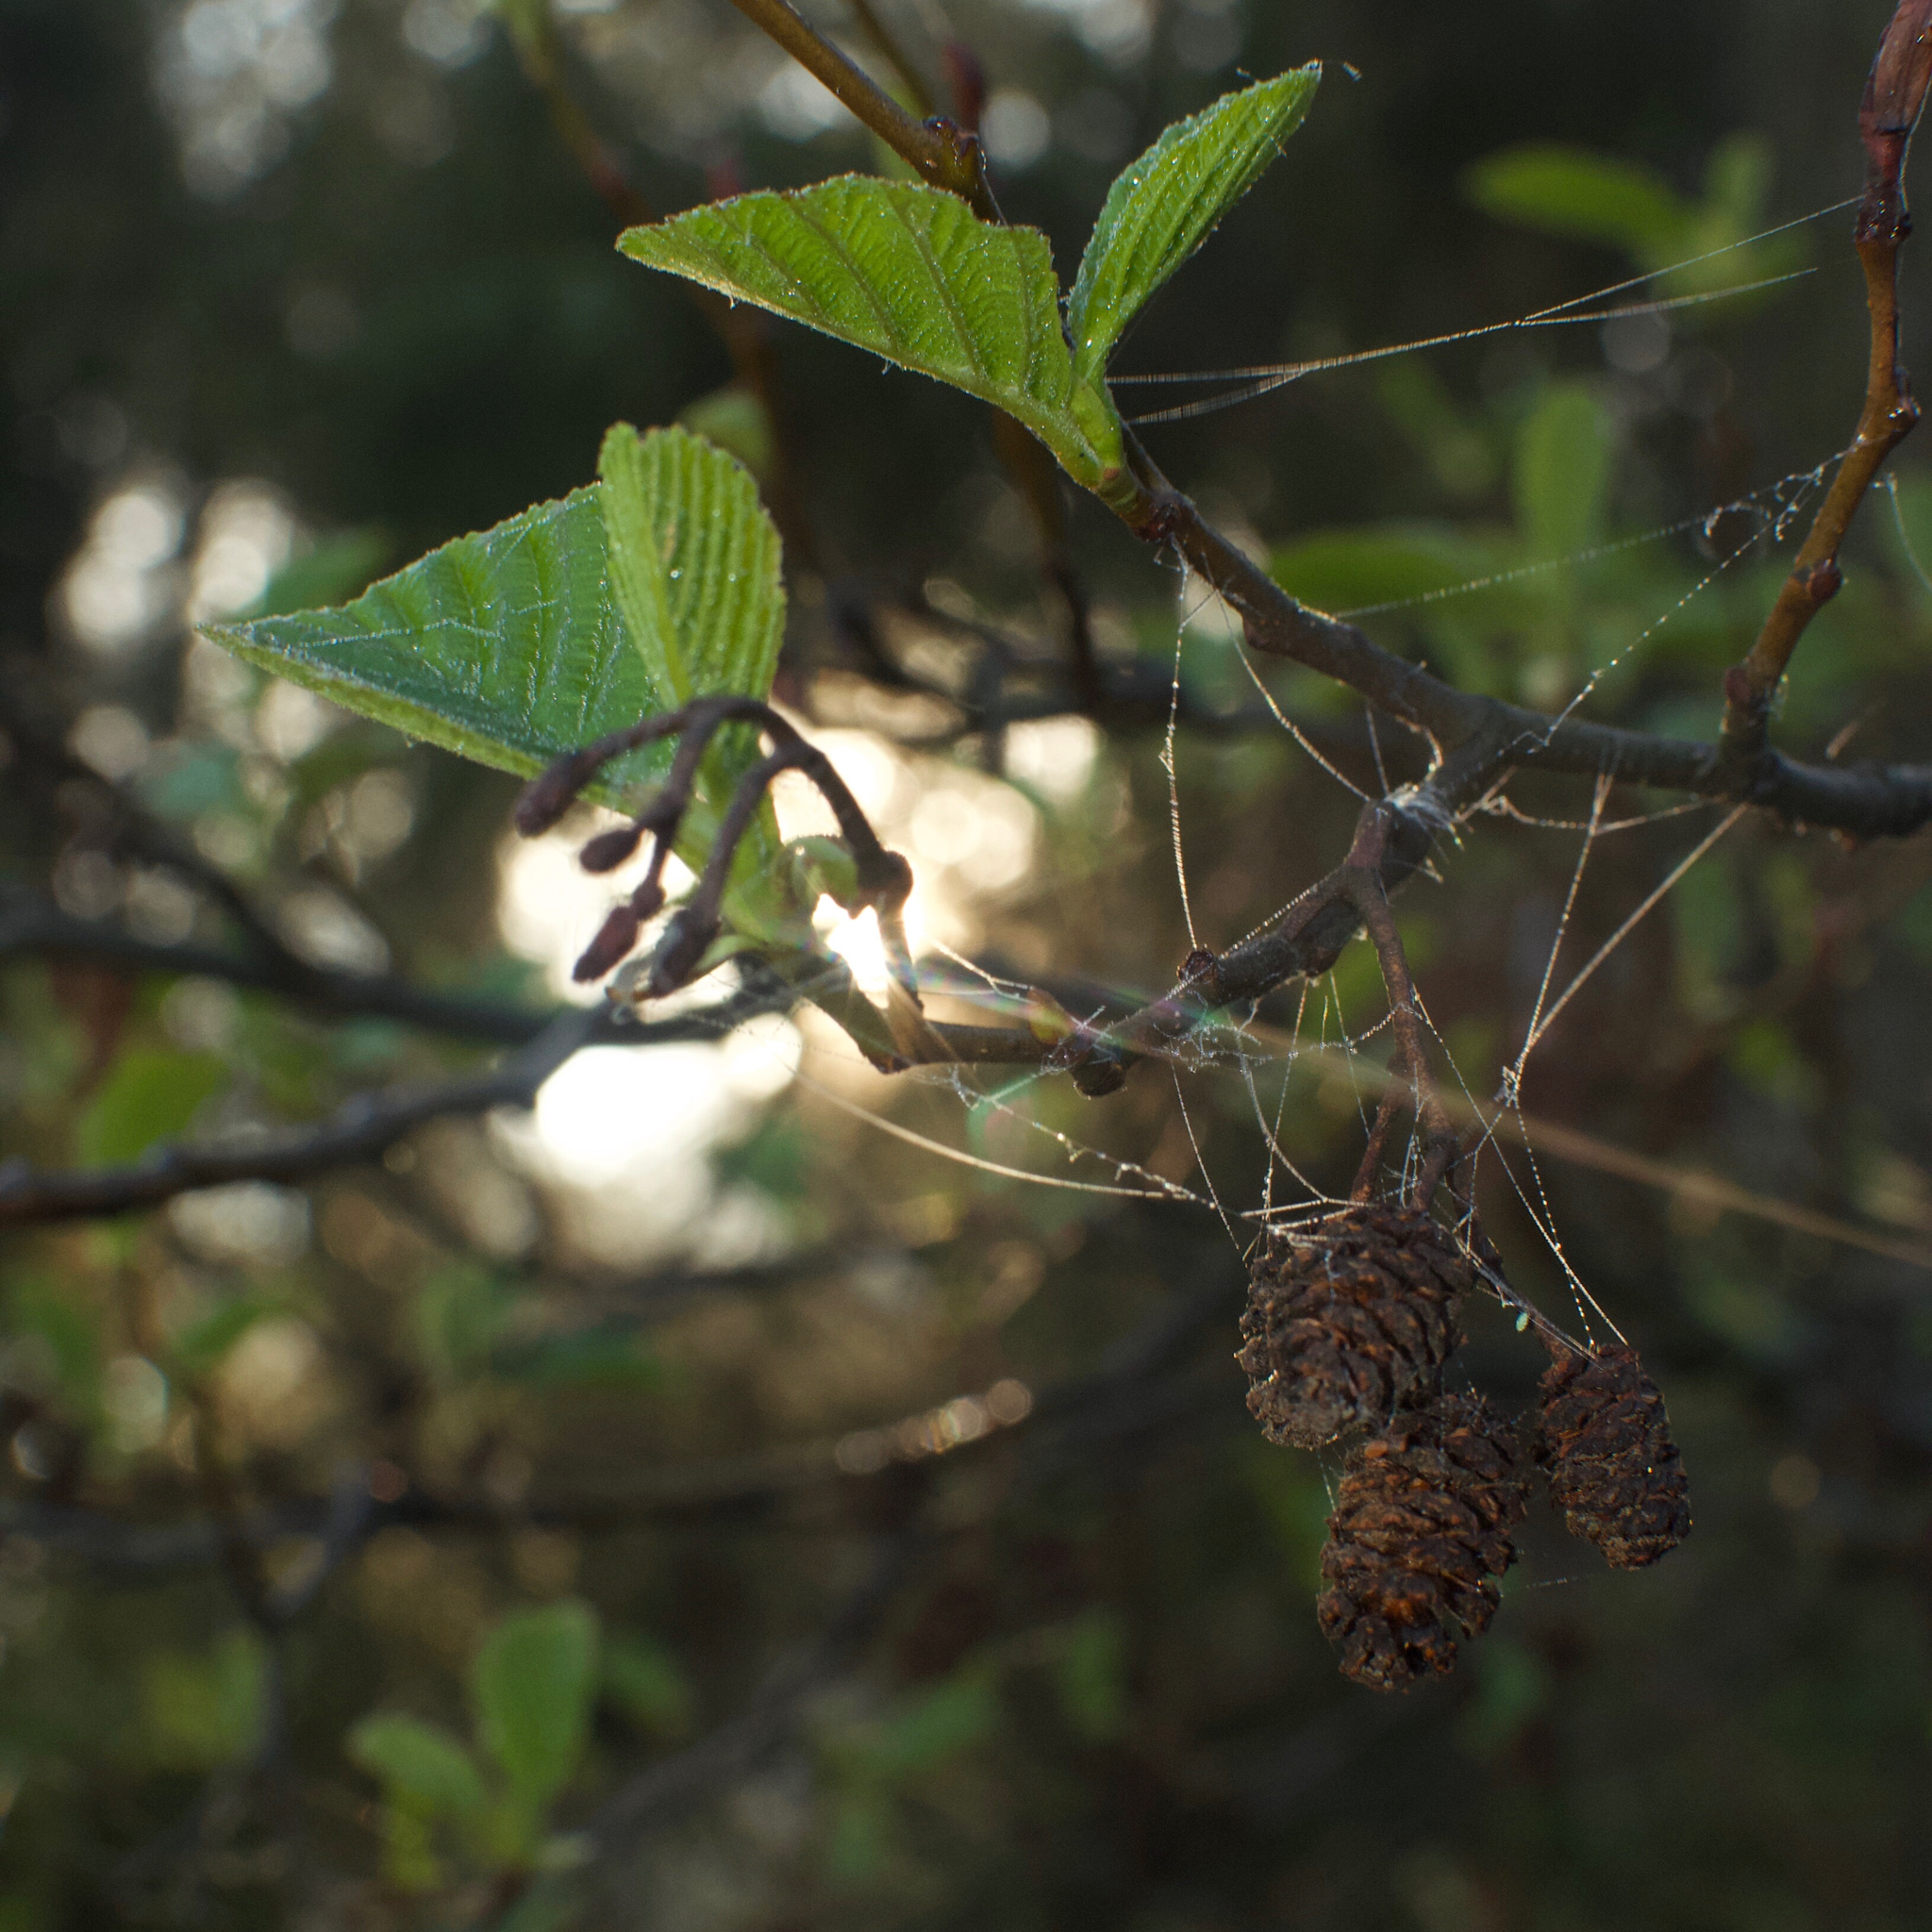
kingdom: Plantae
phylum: Tracheophyta
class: Magnoliopsida
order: Fagales
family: Betulaceae
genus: Alnus
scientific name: Alnus glutinosa
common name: Black alder
